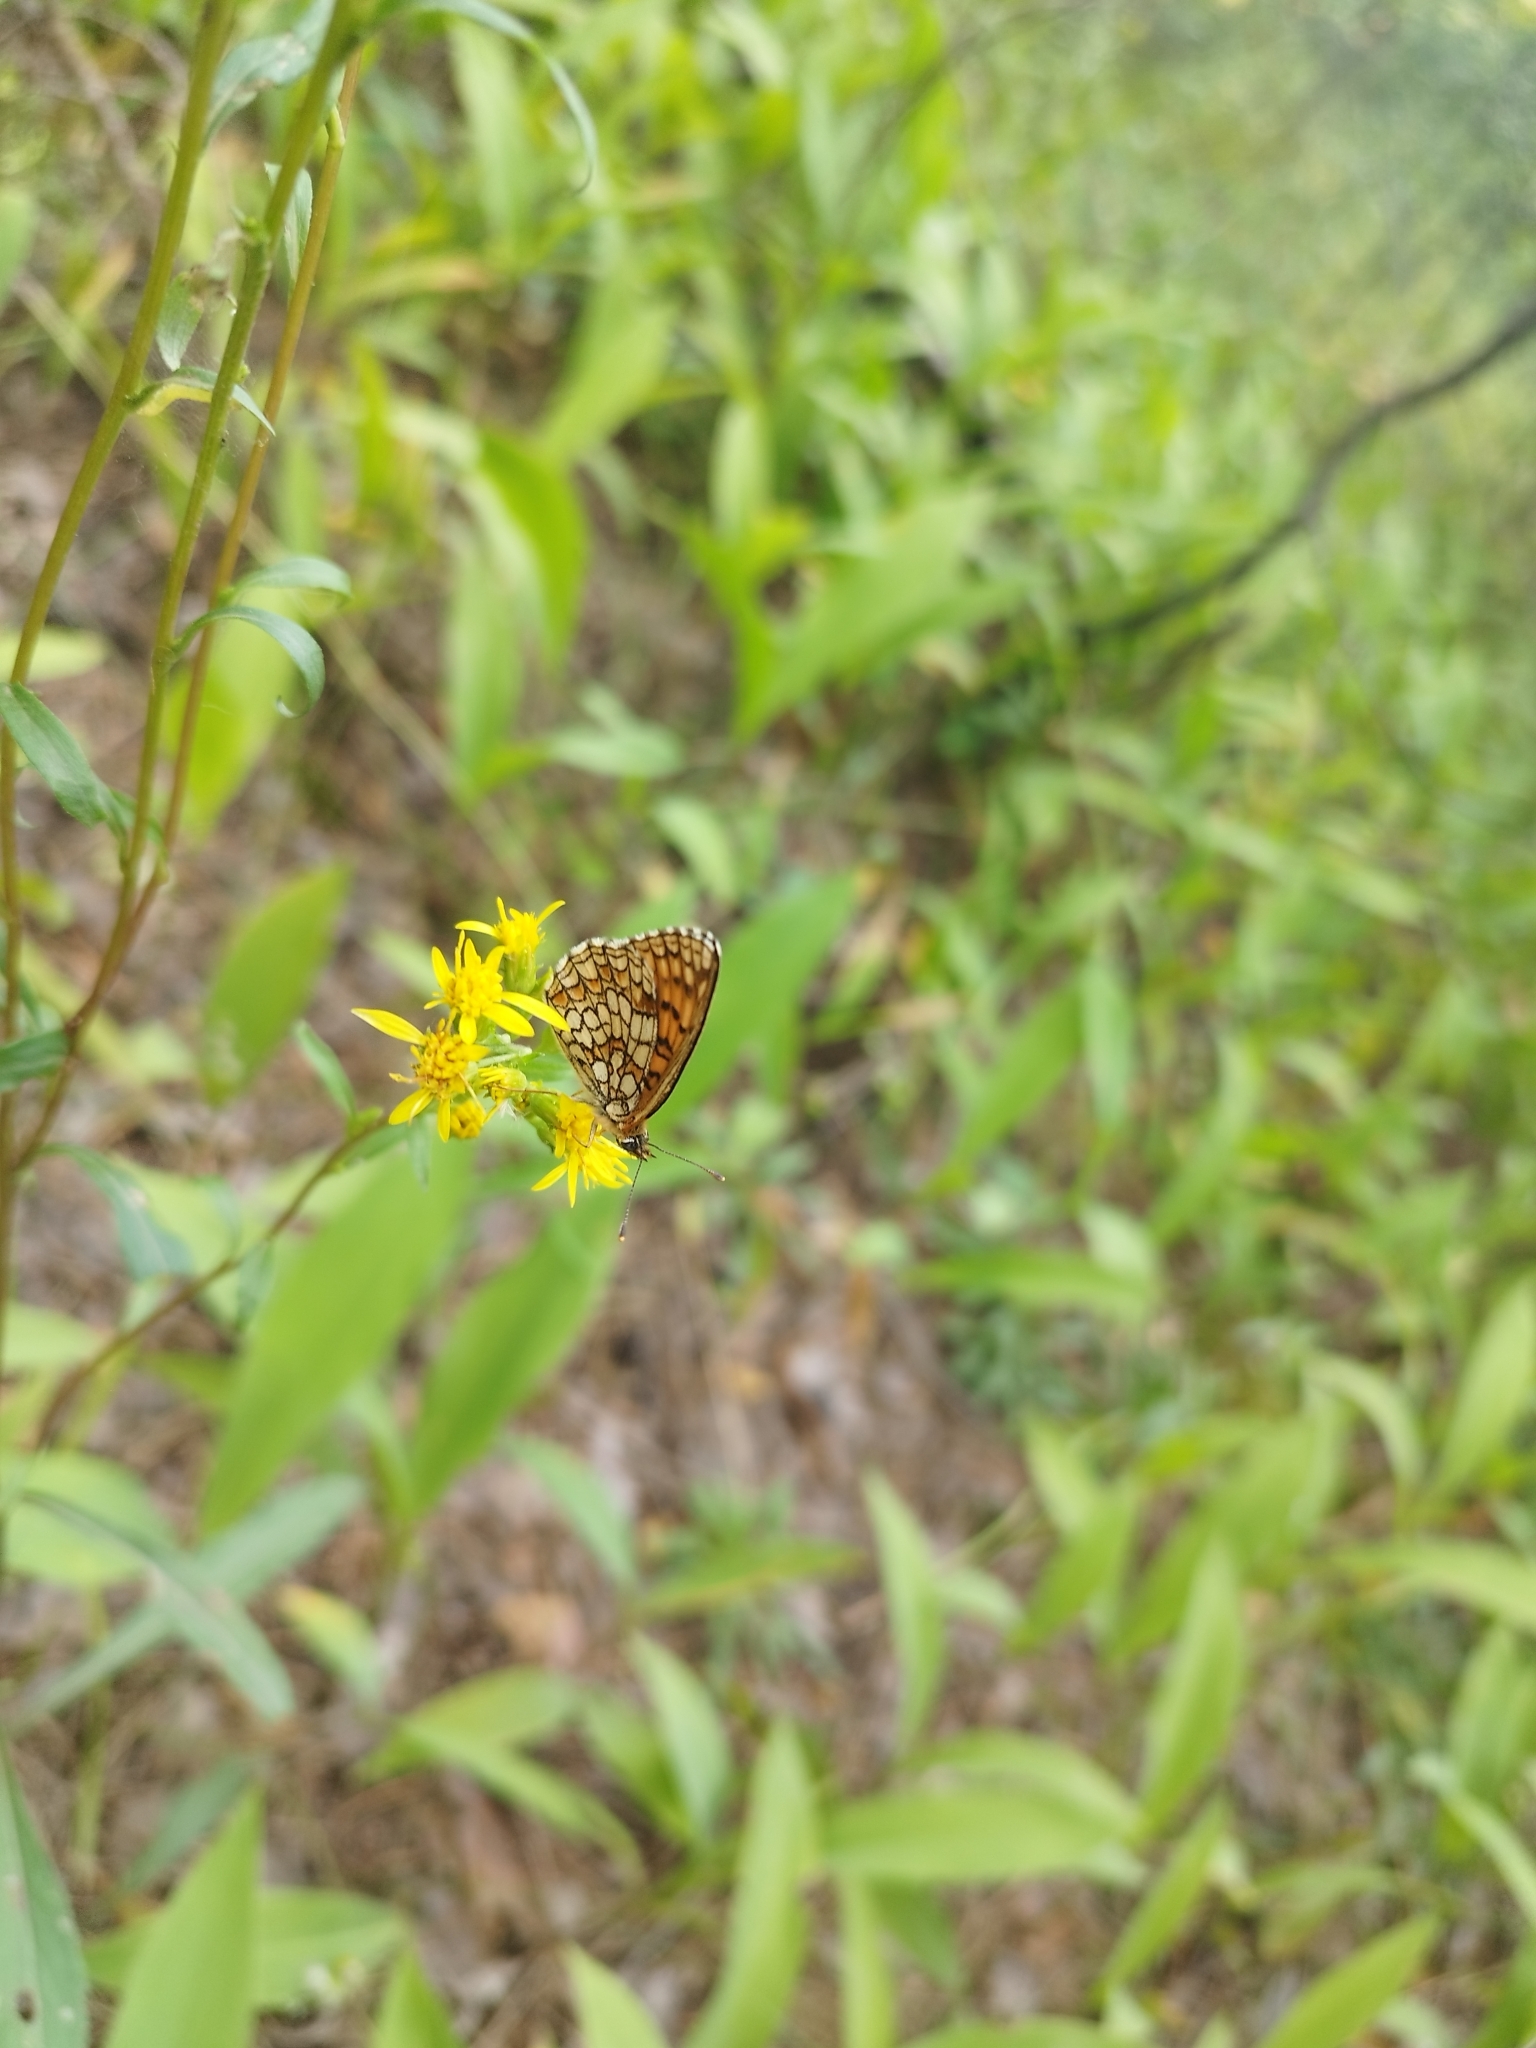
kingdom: Animalia
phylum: Arthropoda
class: Insecta
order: Lepidoptera
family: Nymphalidae
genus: Melitaea
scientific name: Melitaea athalia
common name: Heath fritillary
